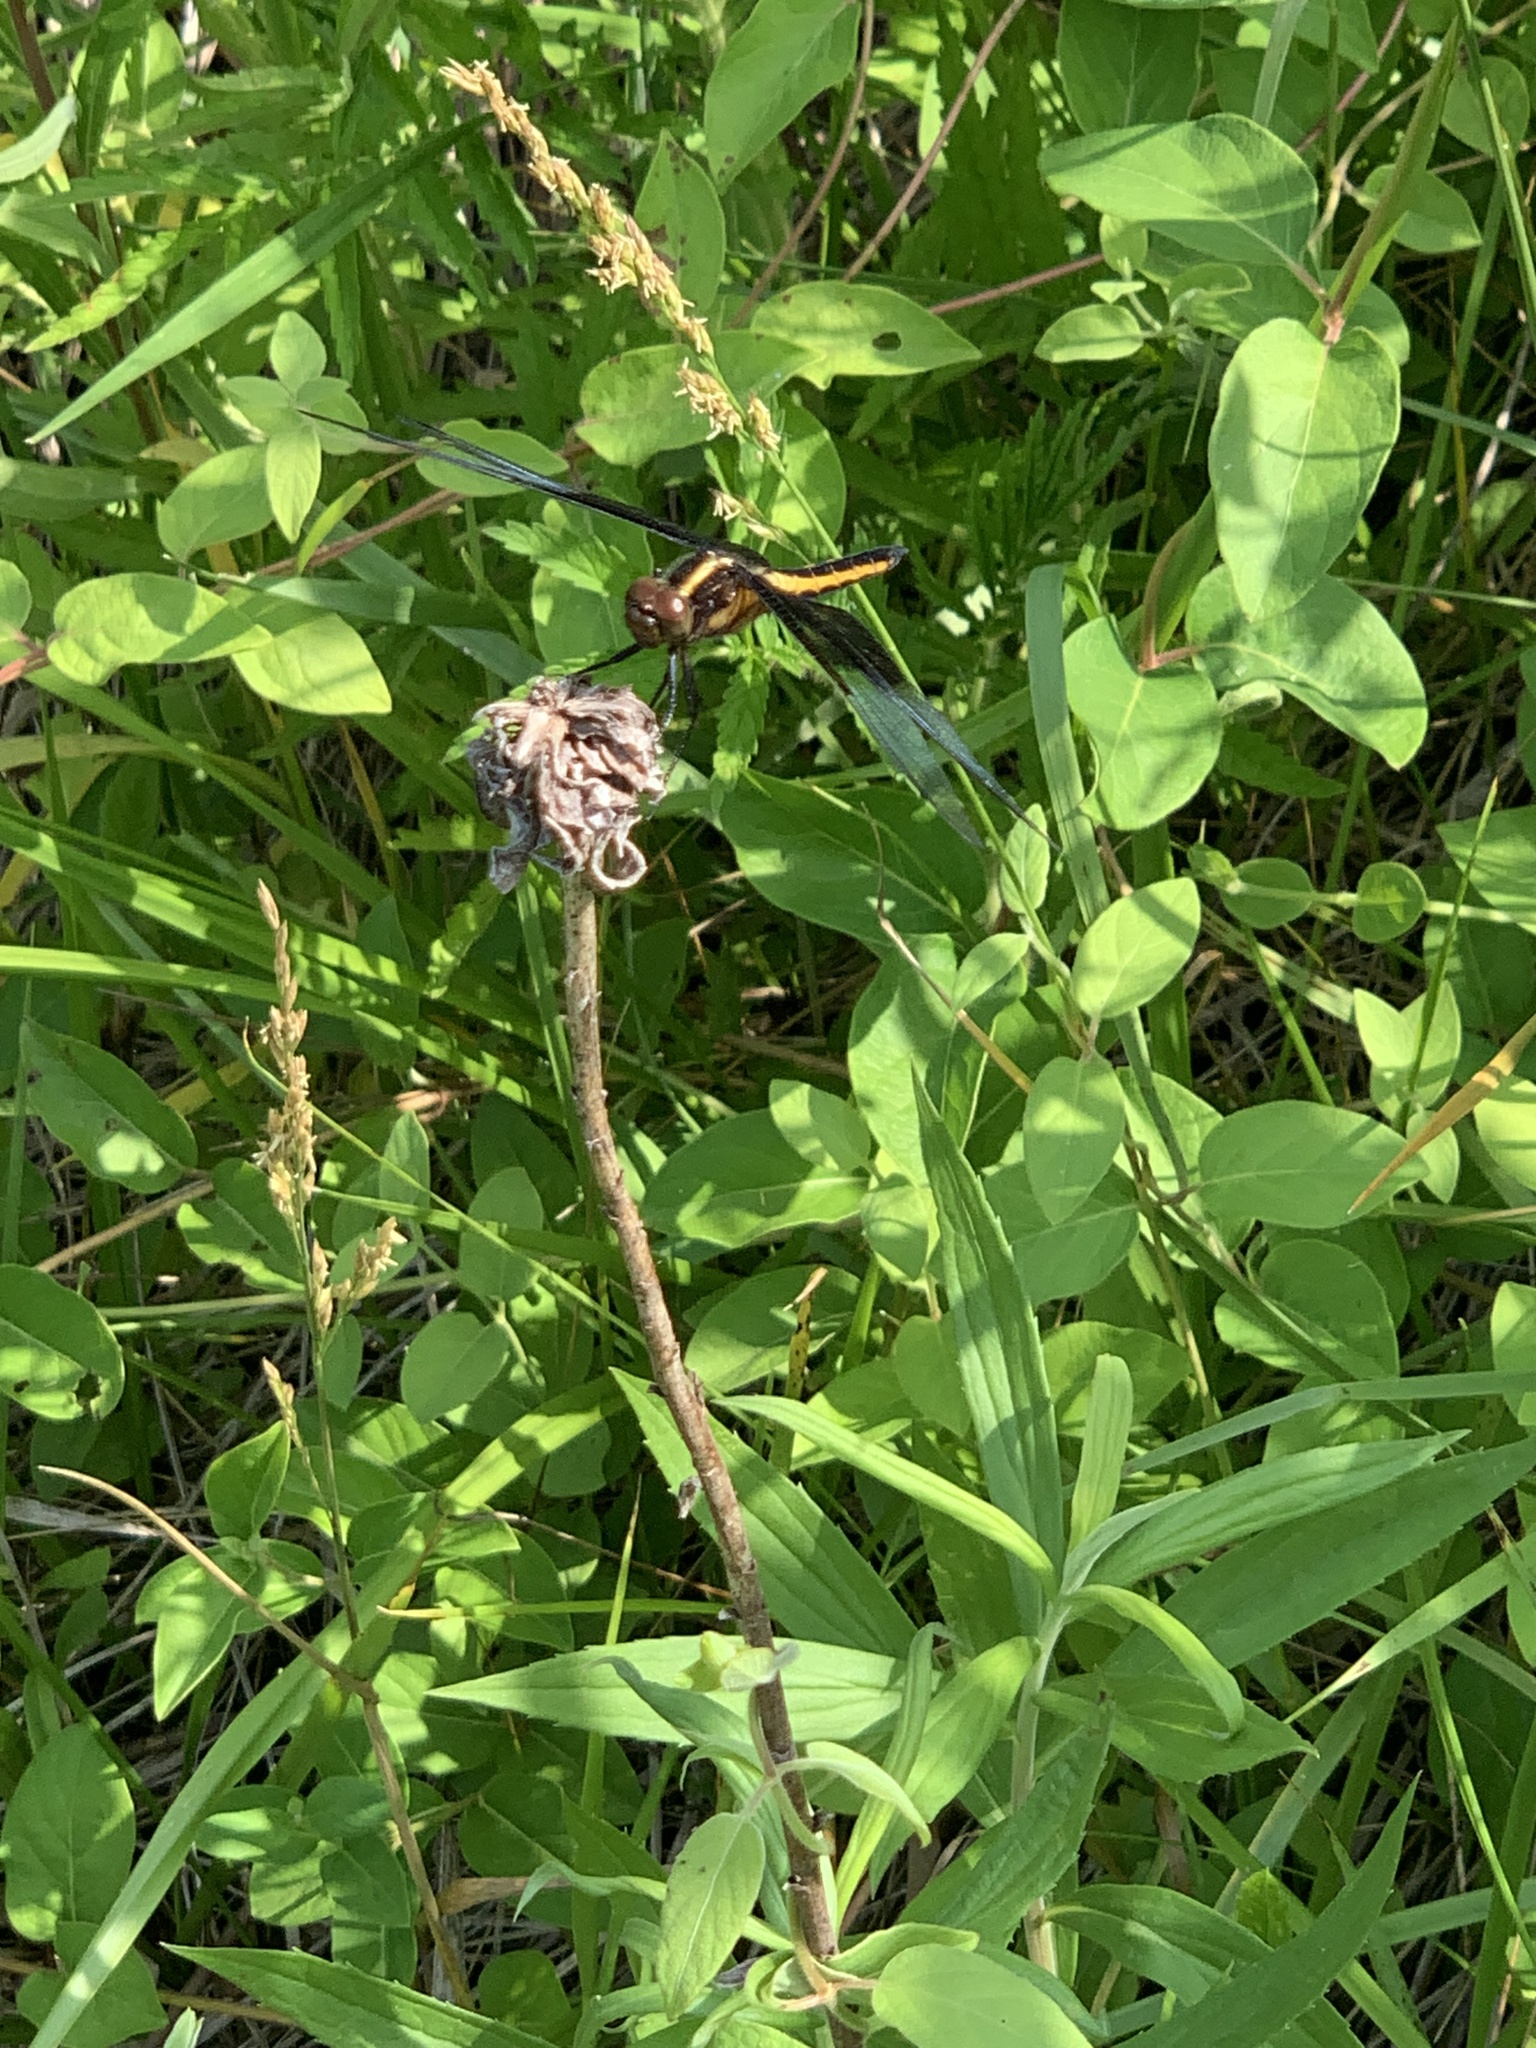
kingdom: Animalia
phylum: Arthropoda
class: Insecta
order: Odonata
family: Libellulidae
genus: Libellula
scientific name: Libellula luctuosa
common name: Widow skimmer
